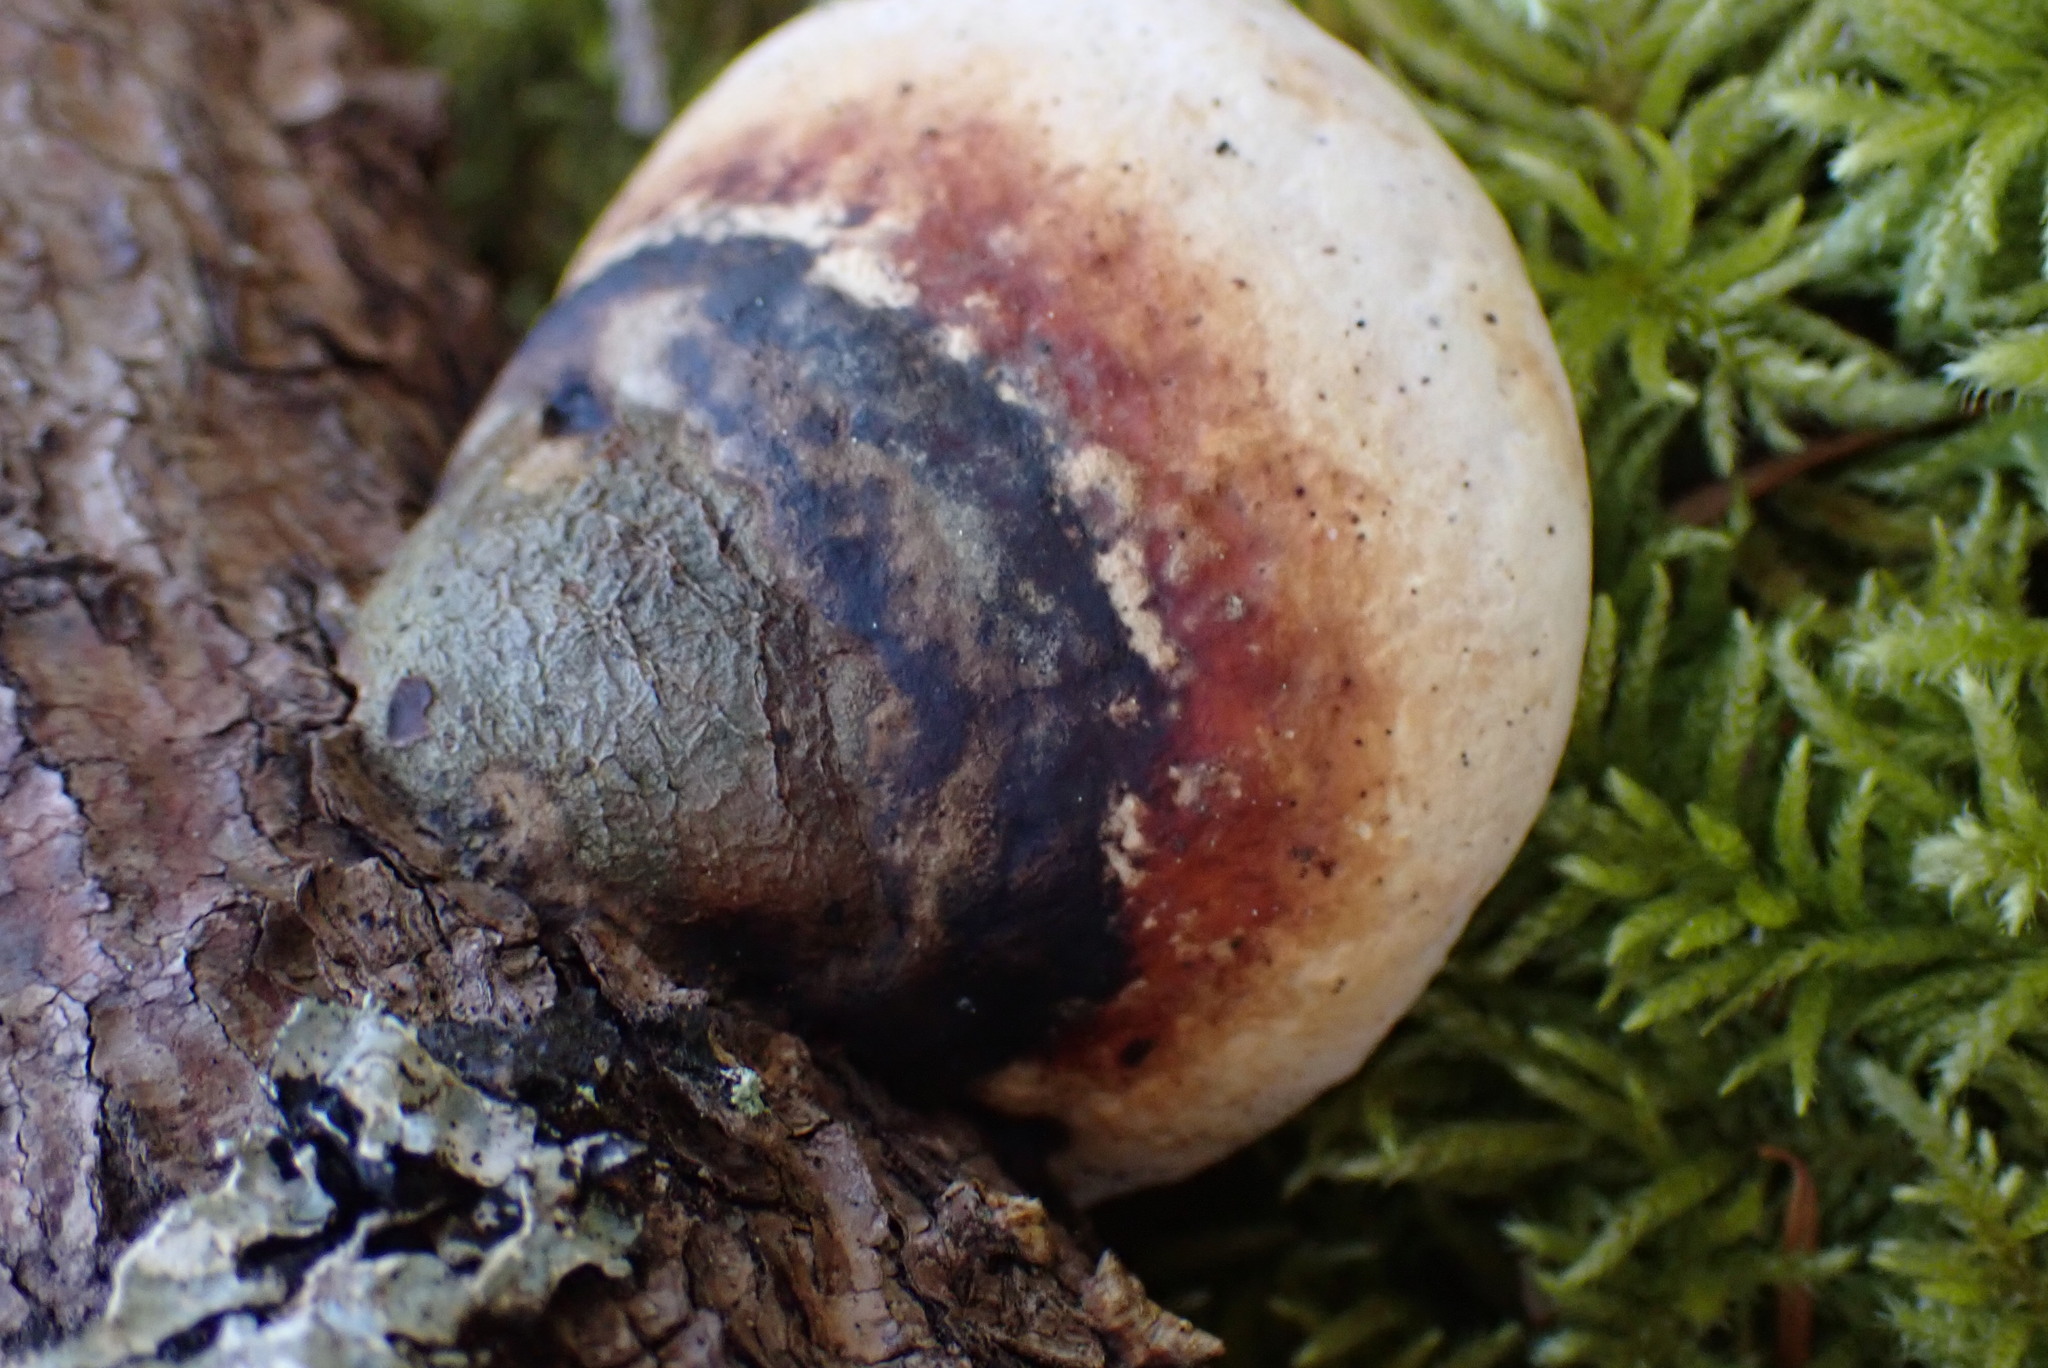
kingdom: Fungi
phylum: Basidiomycota
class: Agaricomycetes
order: Polyporales
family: Fomitopsidaceae
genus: Fomitopsis
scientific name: Fomitopsis mounceae
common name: Northern red belt
